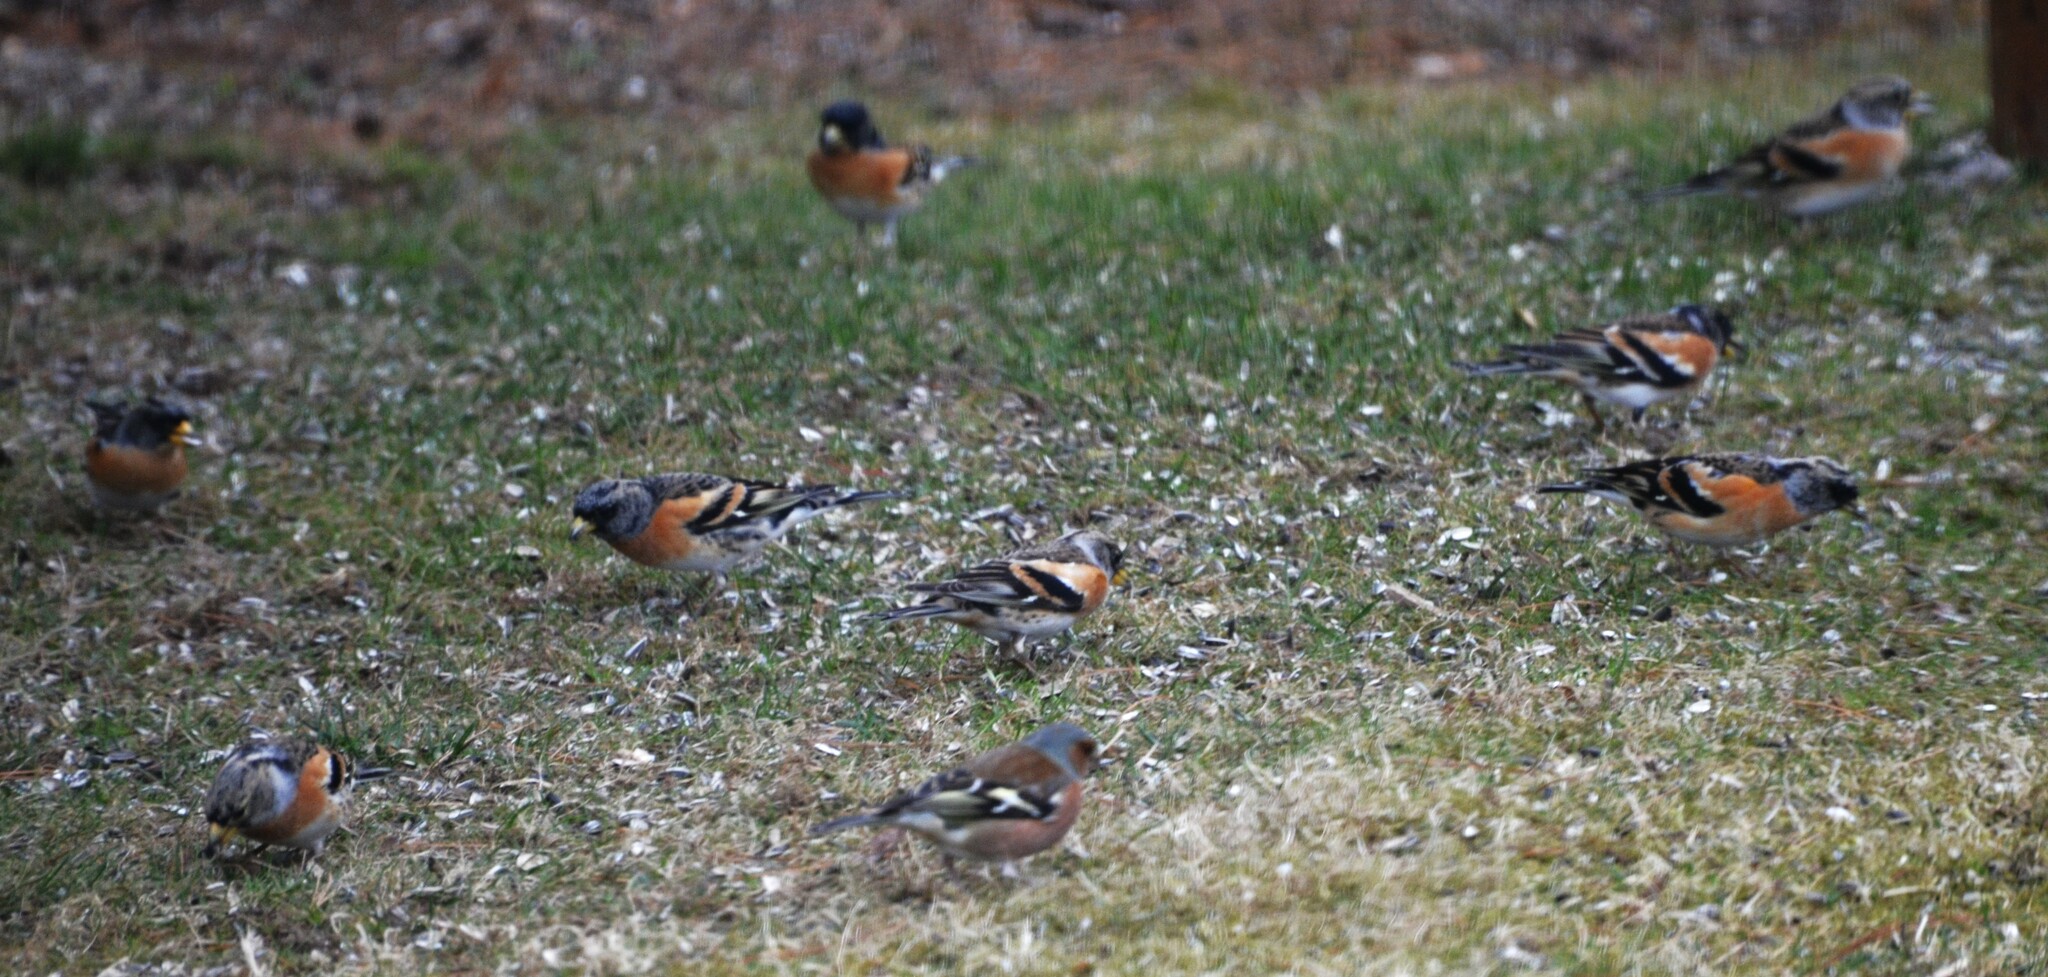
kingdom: Animalia
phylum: Chordata
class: Aves
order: Passeriformes
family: Fringillidae
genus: Fringilla
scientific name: Fringilla montifringilla
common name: Brambling
